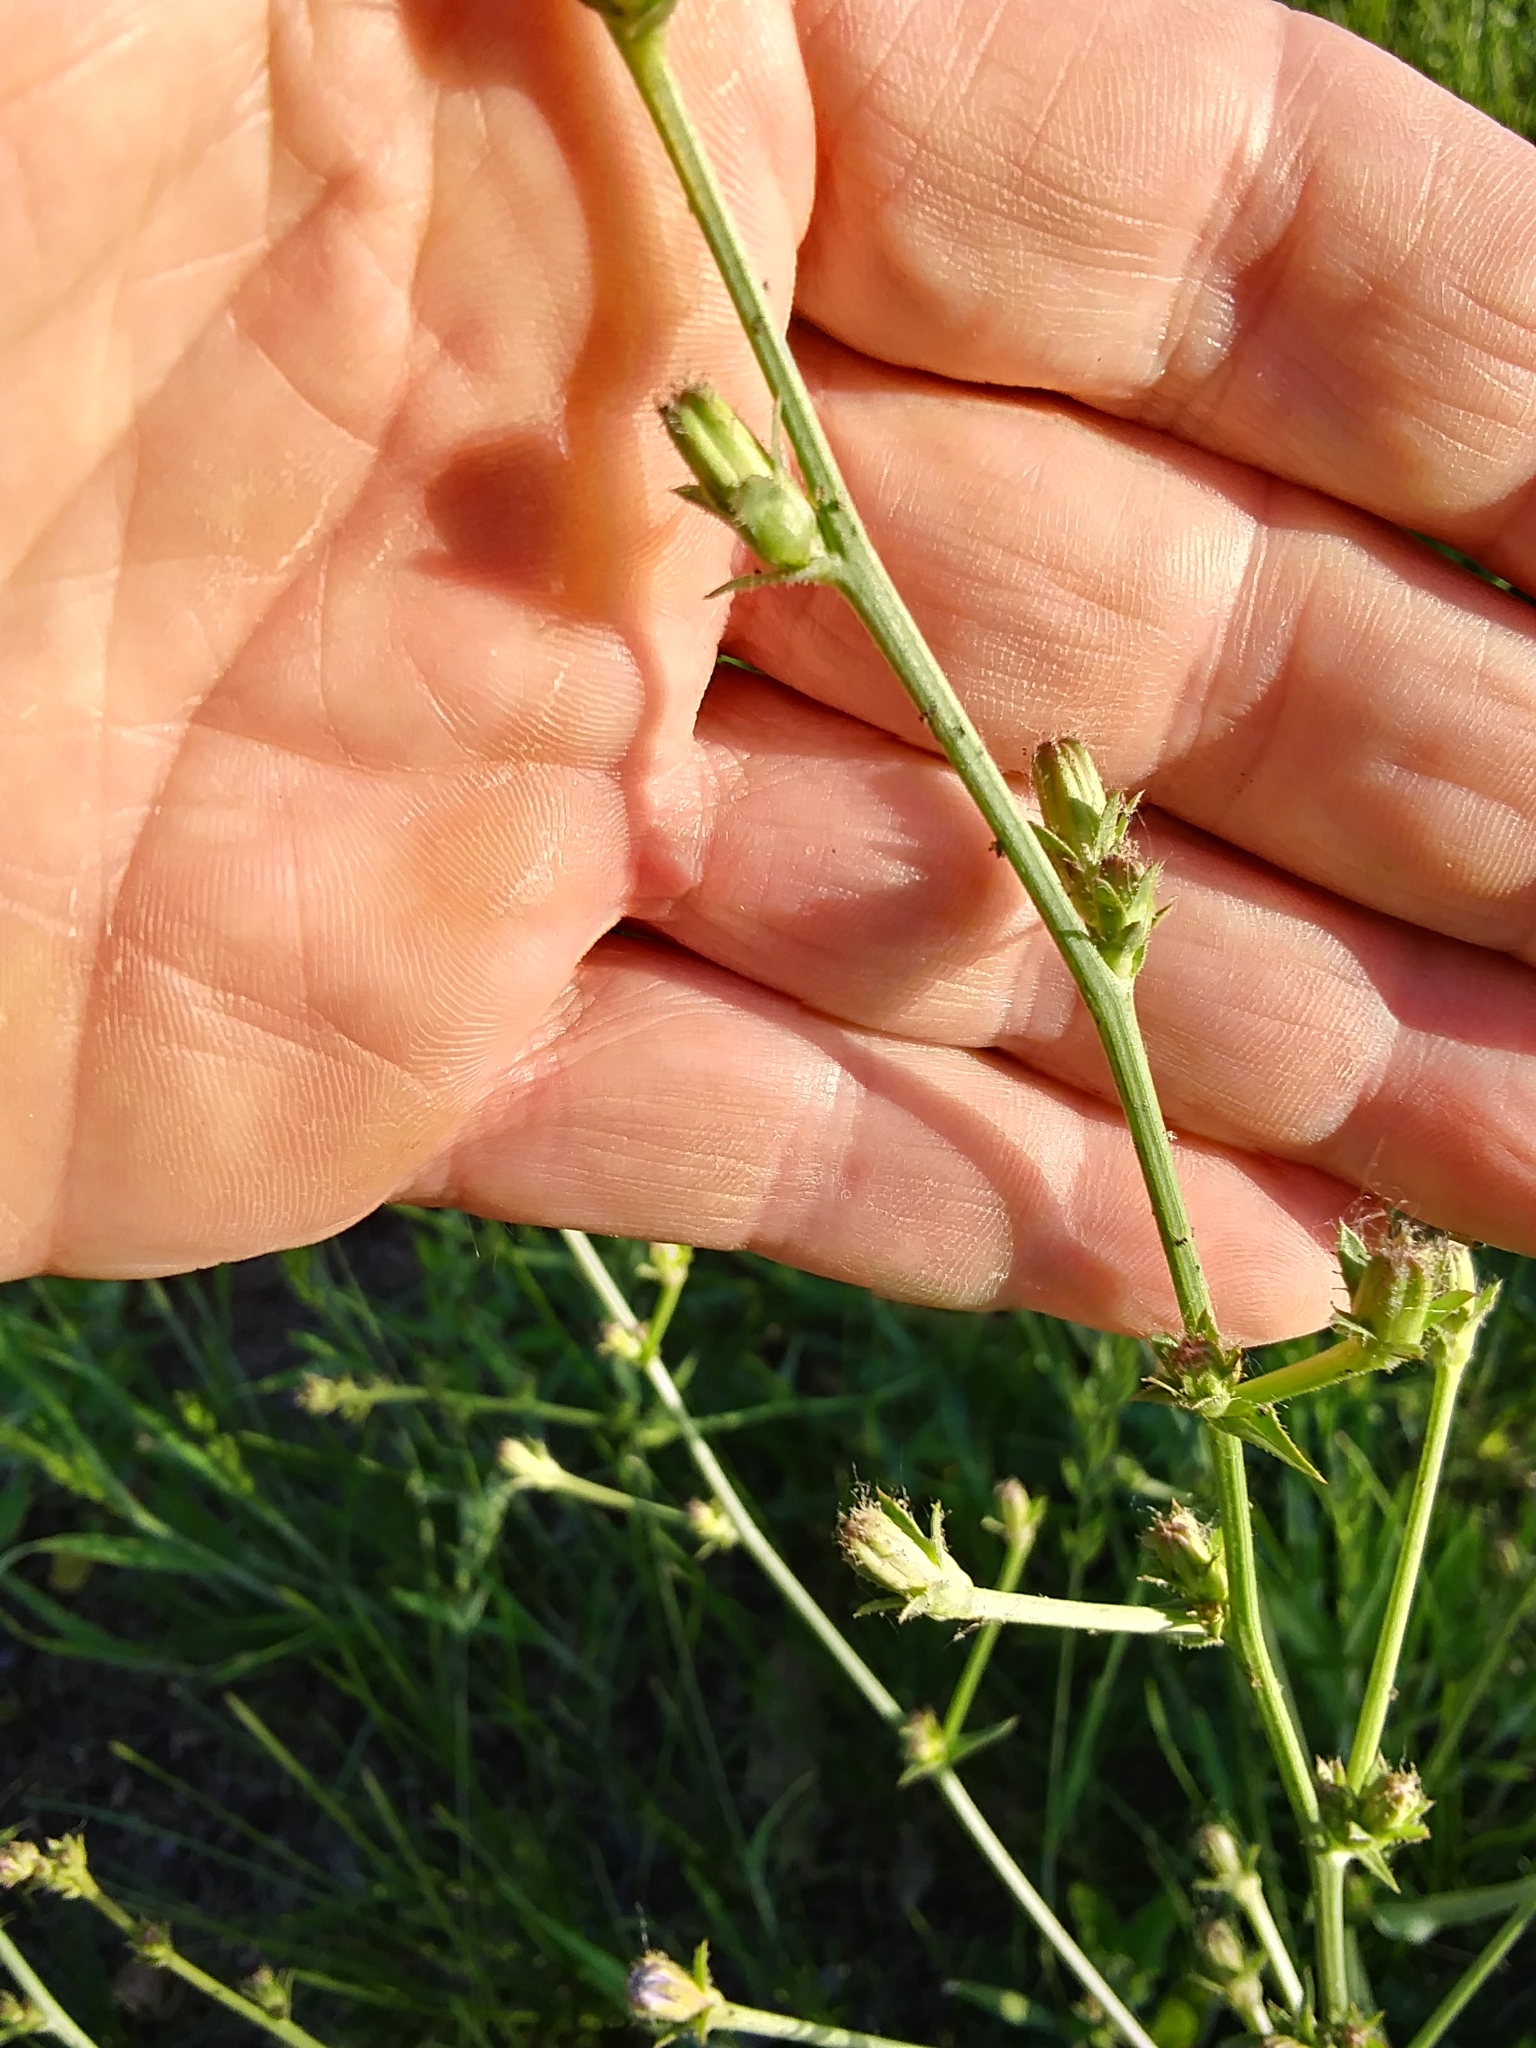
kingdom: Plantae
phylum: Tracheophyta
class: Magnoliopsida
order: Asterales
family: Asteraceae
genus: Cichorium
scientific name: Cichorium intybus
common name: Chicory
